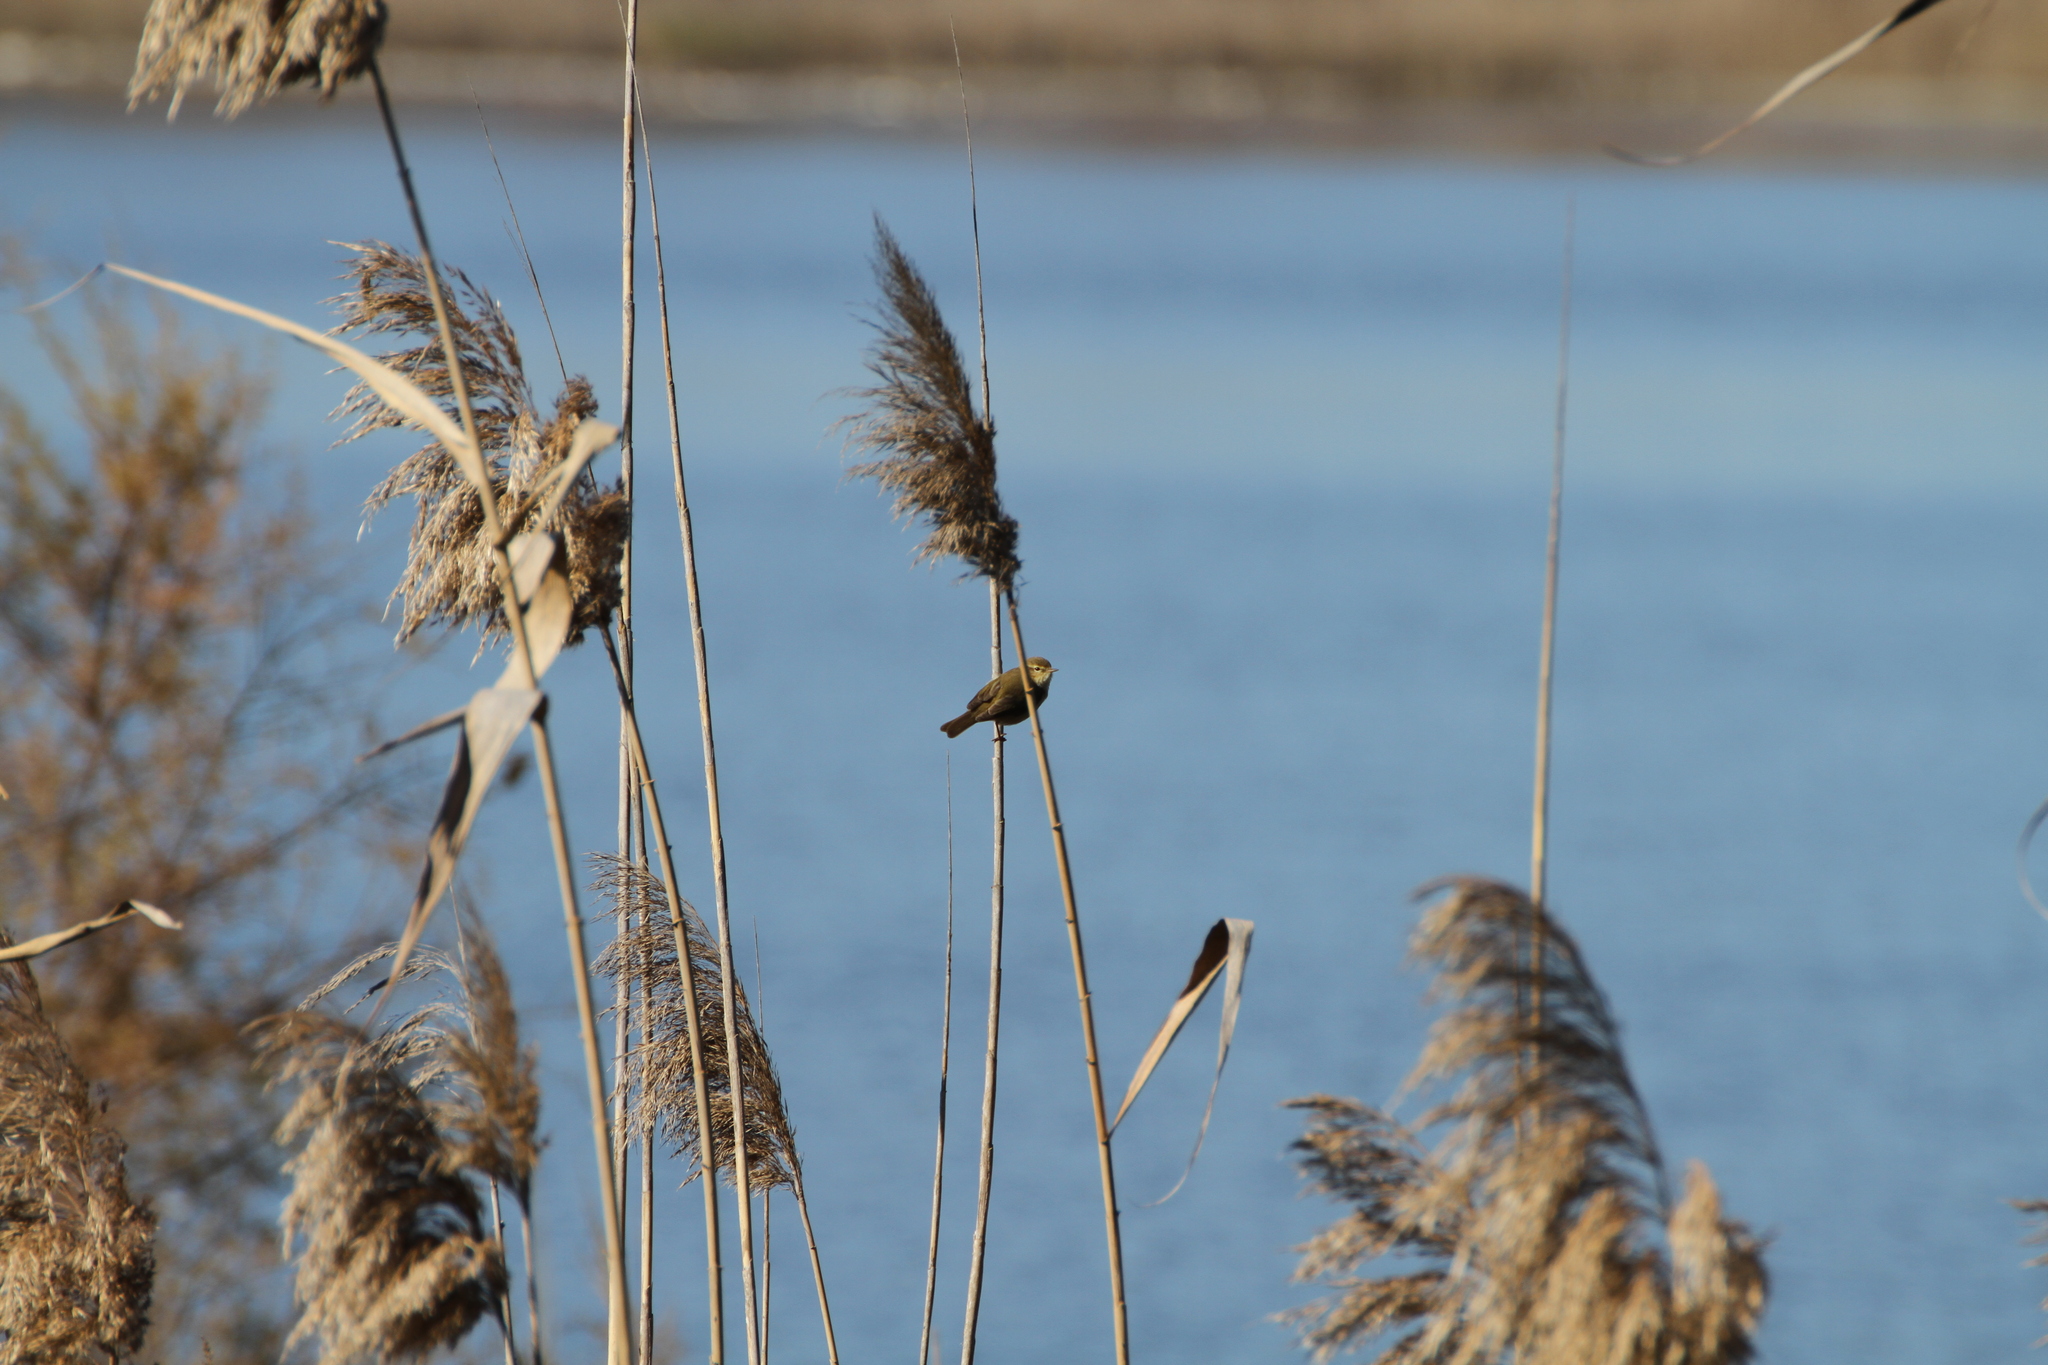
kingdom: Animalia
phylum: Chordata
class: Aves
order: Passeriformes
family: Phylloscopidae
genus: Phylloscopus
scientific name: Phylloscopus collybita
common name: Common chiffchaff
